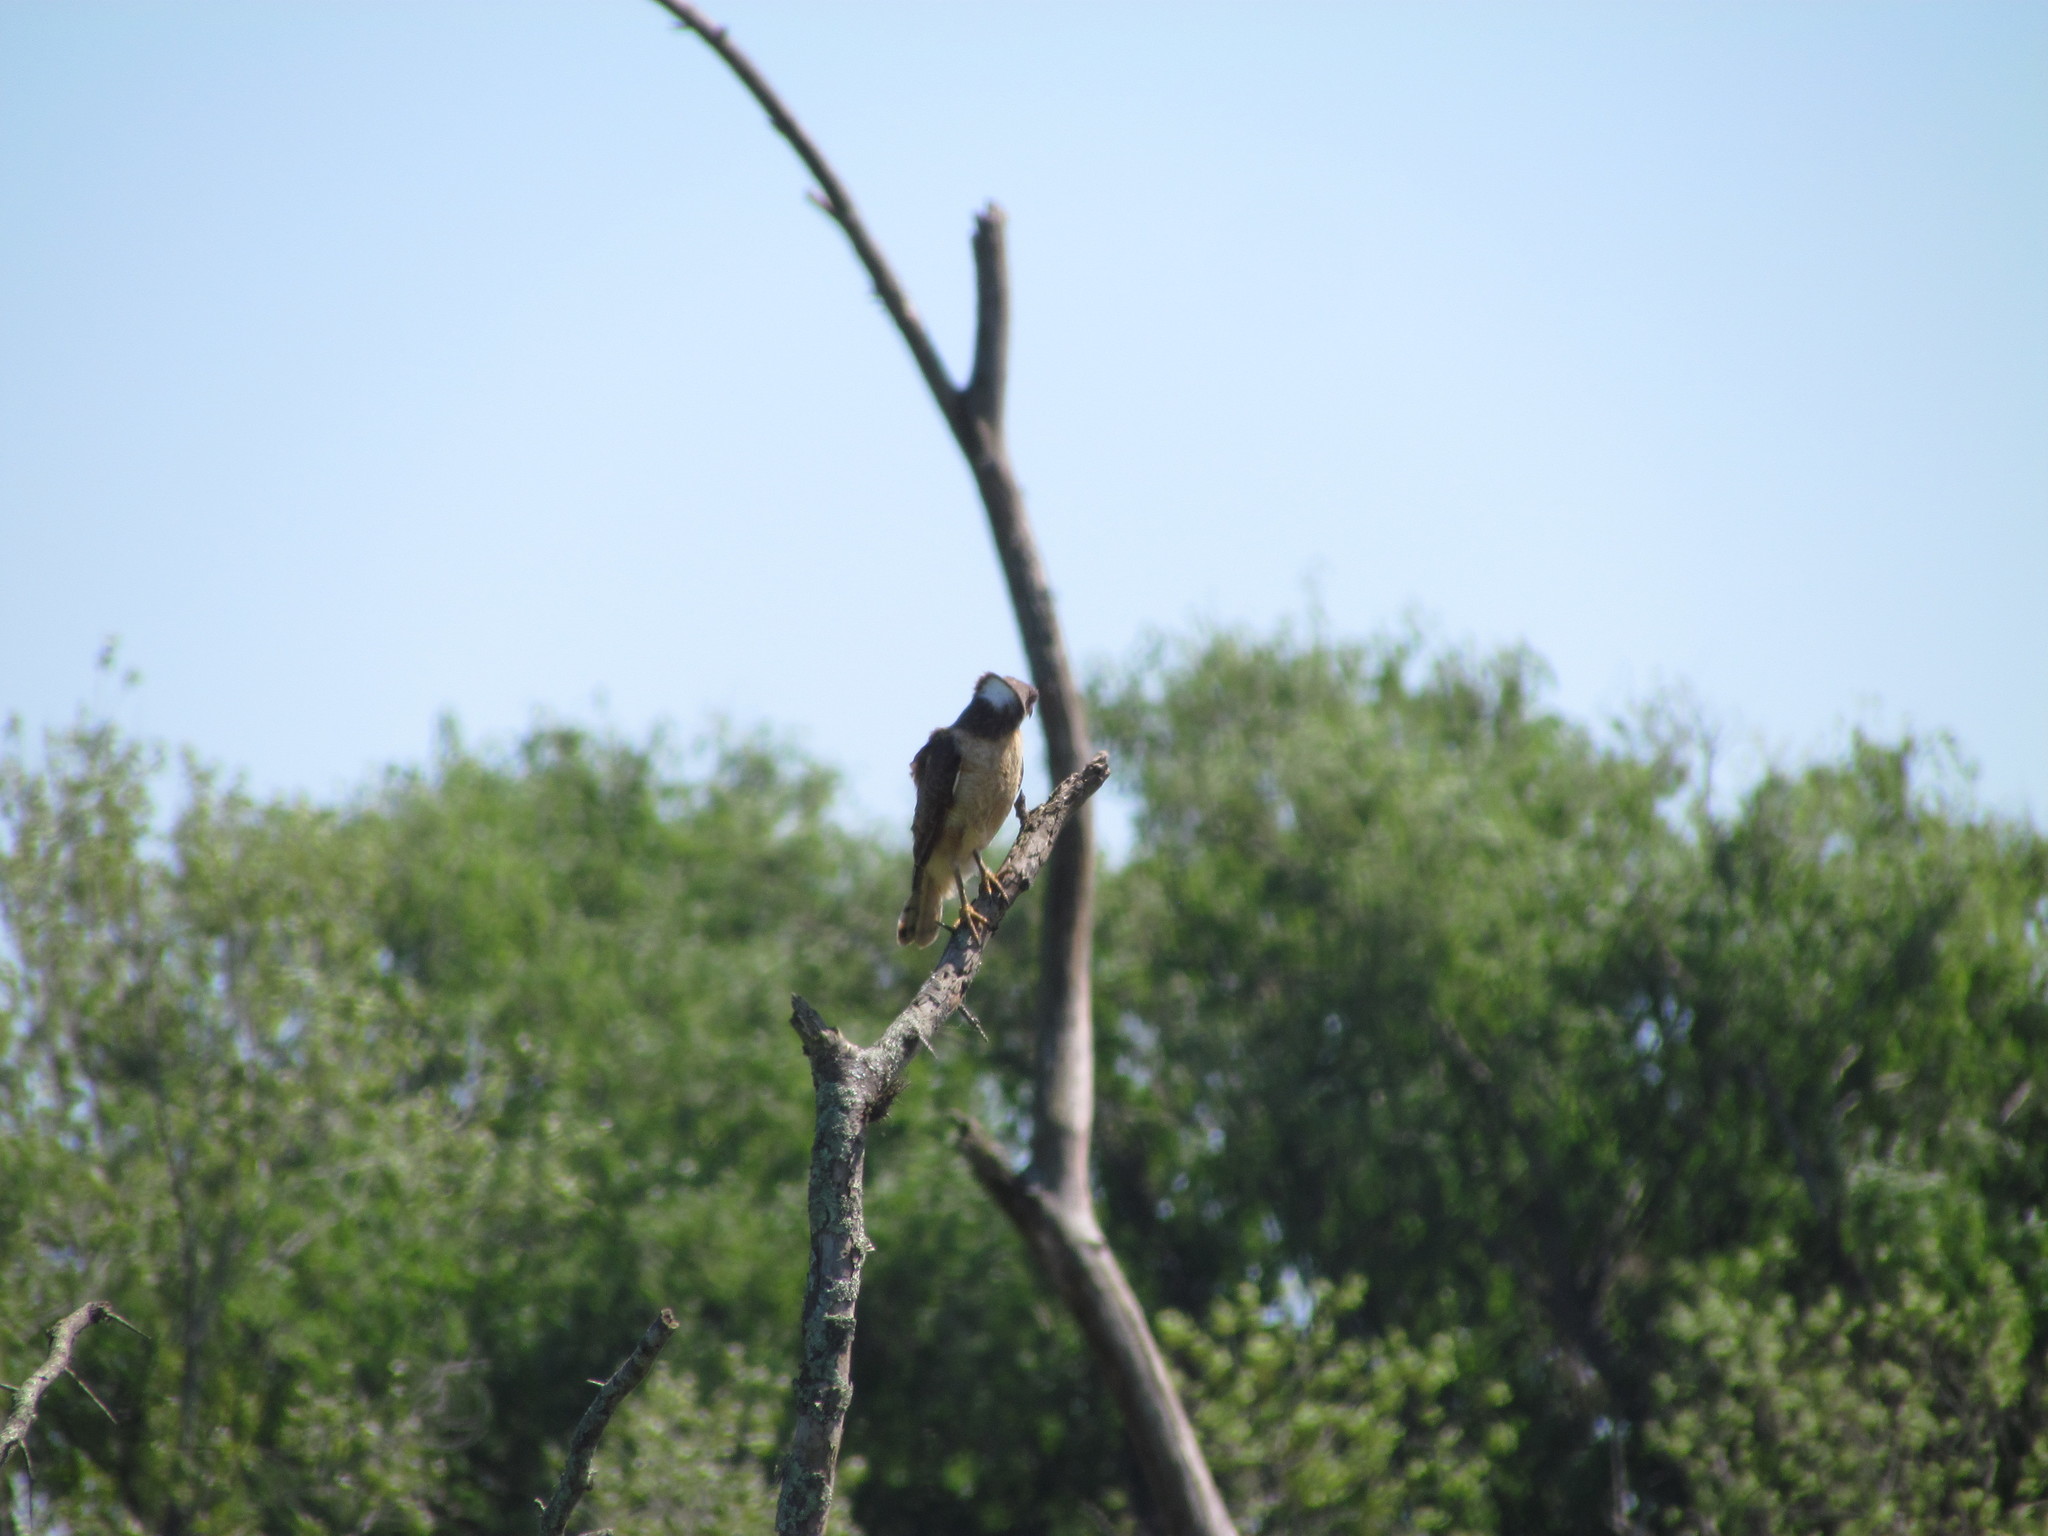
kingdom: Animalia
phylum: Chordata
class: Aves
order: Accipitriformes
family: Accipitridae
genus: Rupornis
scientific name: Rupornis magnirostris
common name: Roadside hawk
